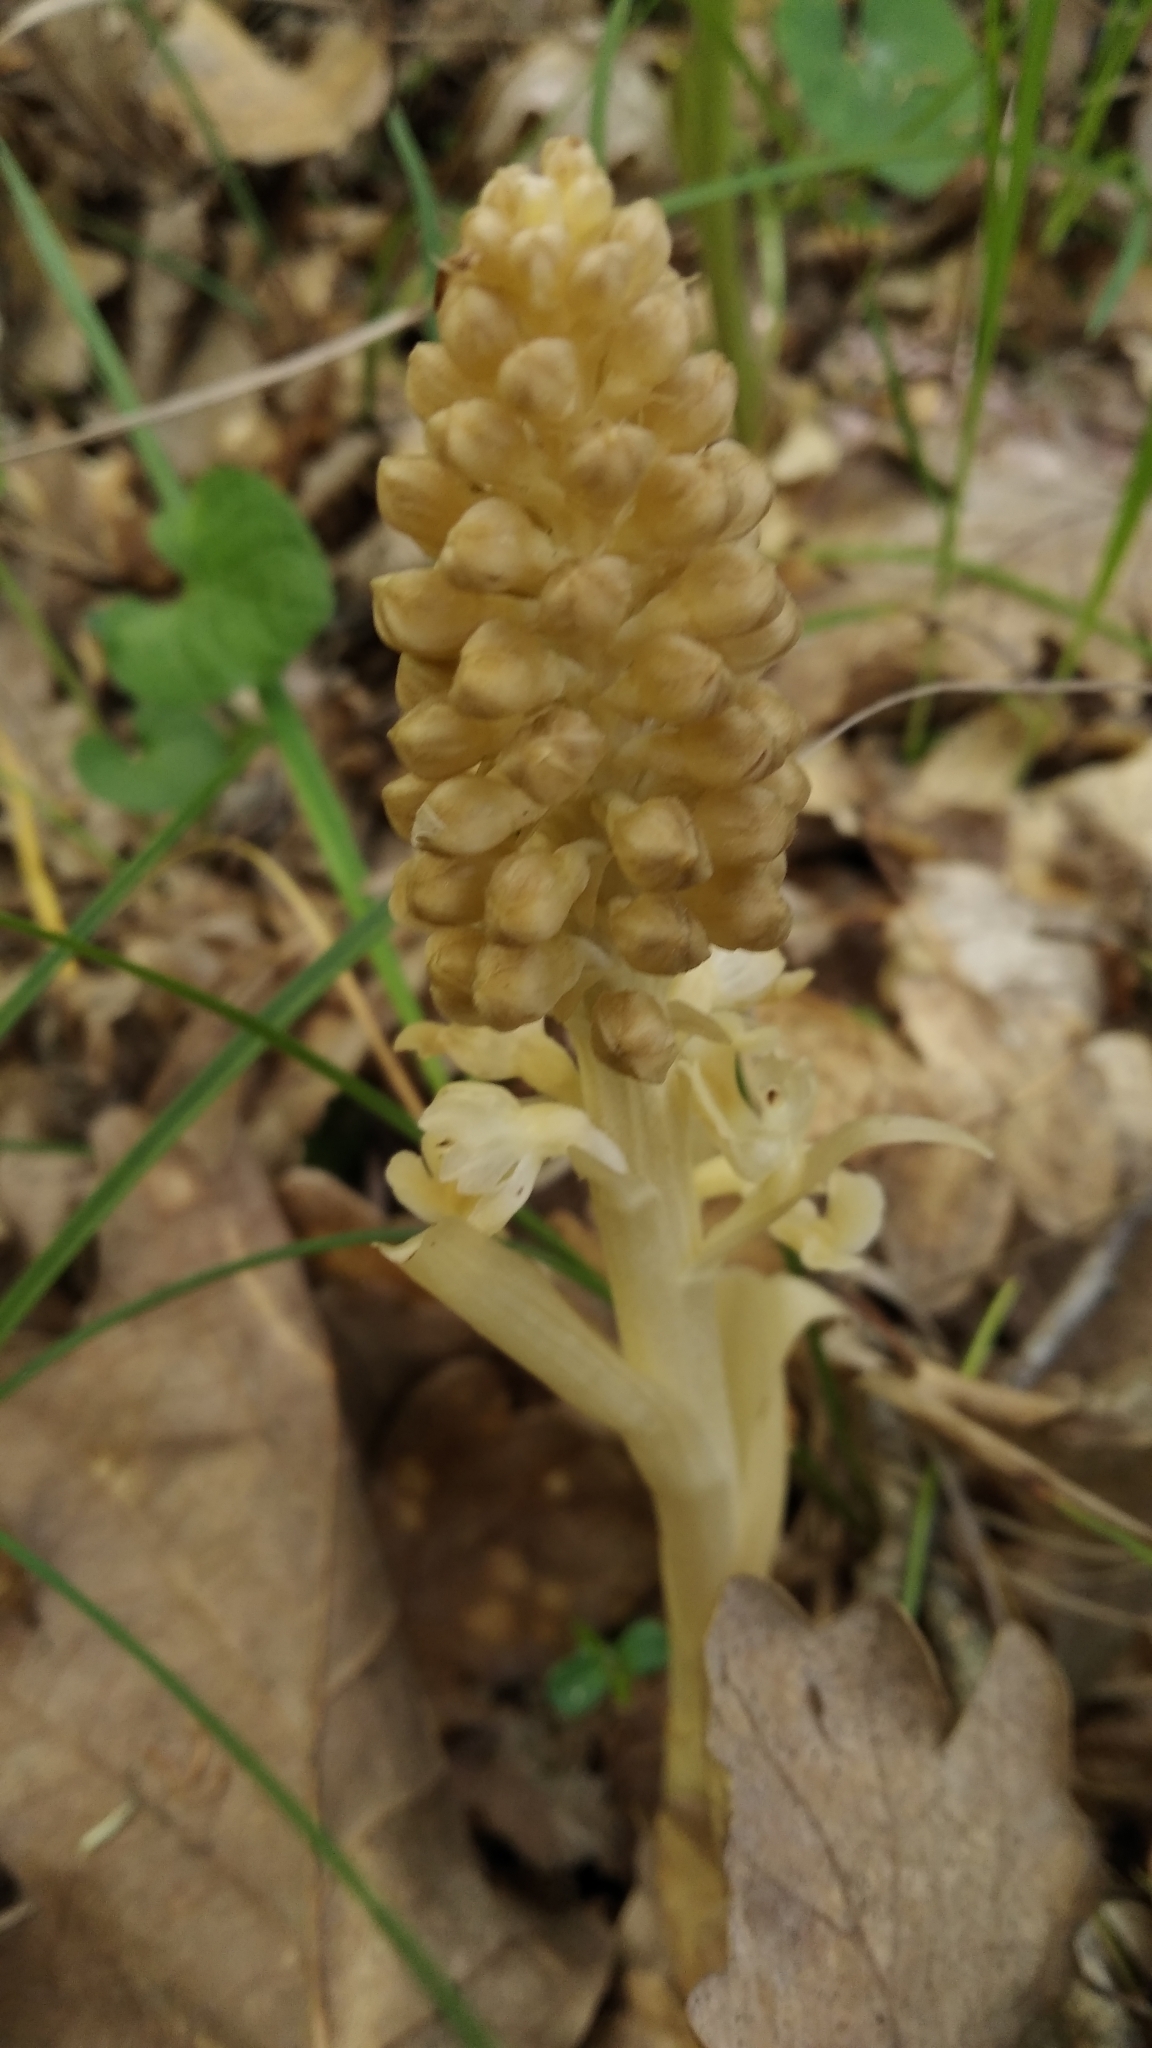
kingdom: Plantae
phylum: Tracheophyta
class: Liliopsida
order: Asparagales
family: Orchidaceae
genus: Neottia
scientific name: Neottia nidus-avis
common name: Bird's-nest orchid
